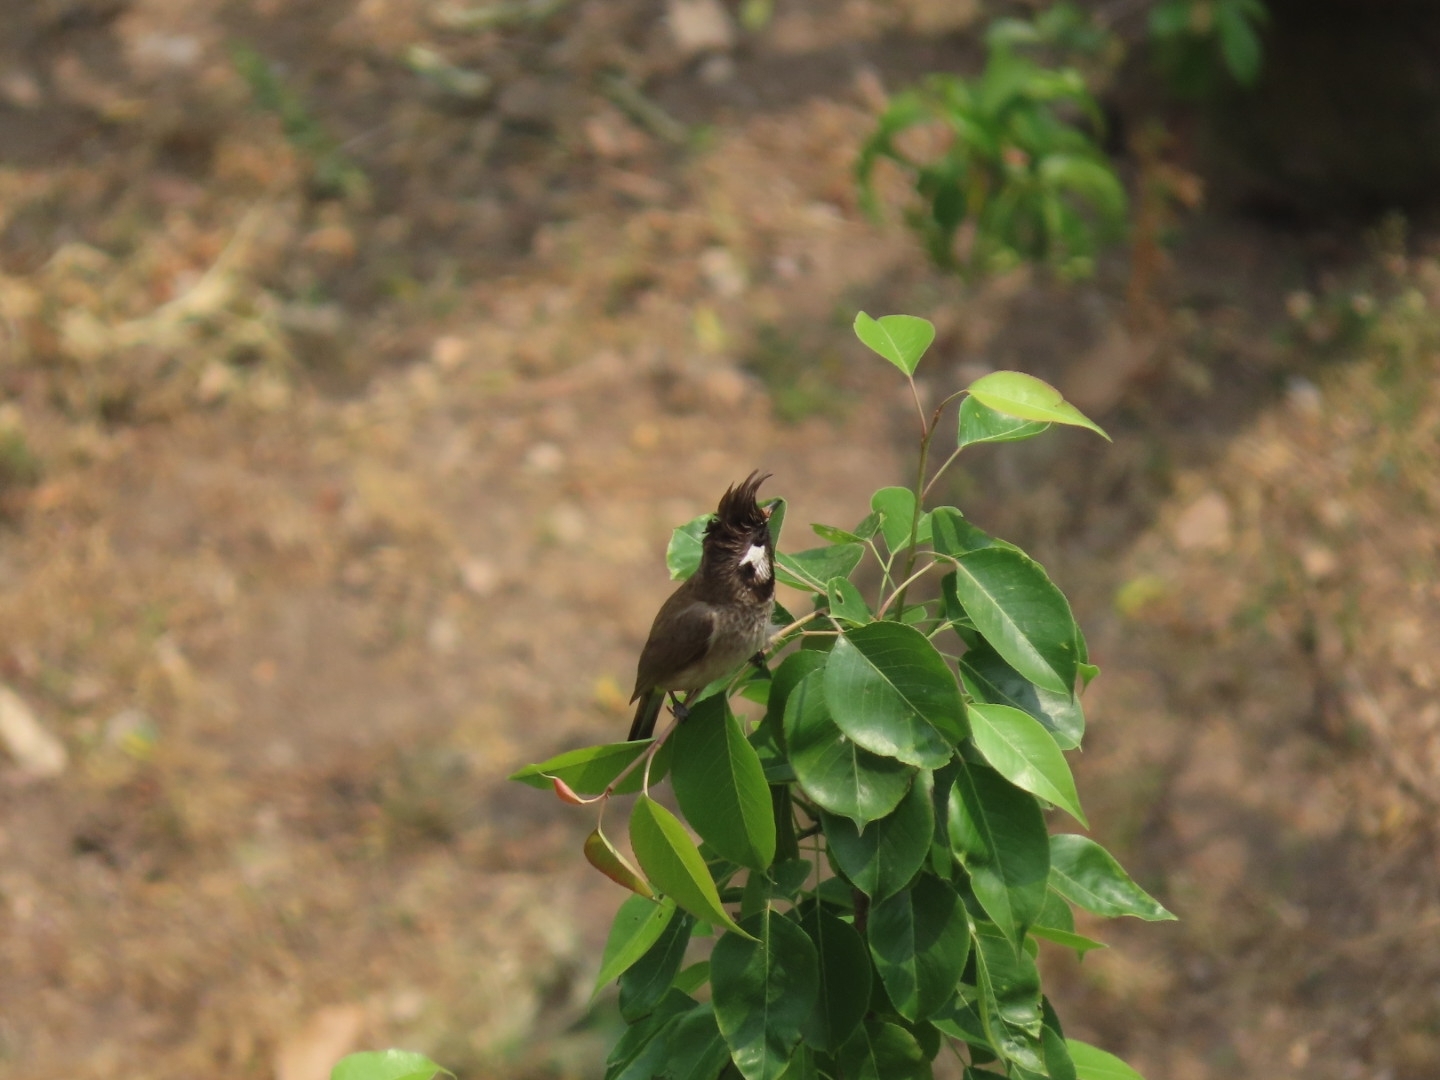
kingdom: Animalia
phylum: Chordata
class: Aves
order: Passeriformes
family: Pycnonotidae
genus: Pycnonotus
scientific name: Pycnonotus leucogenys
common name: Himalayan bulbul
